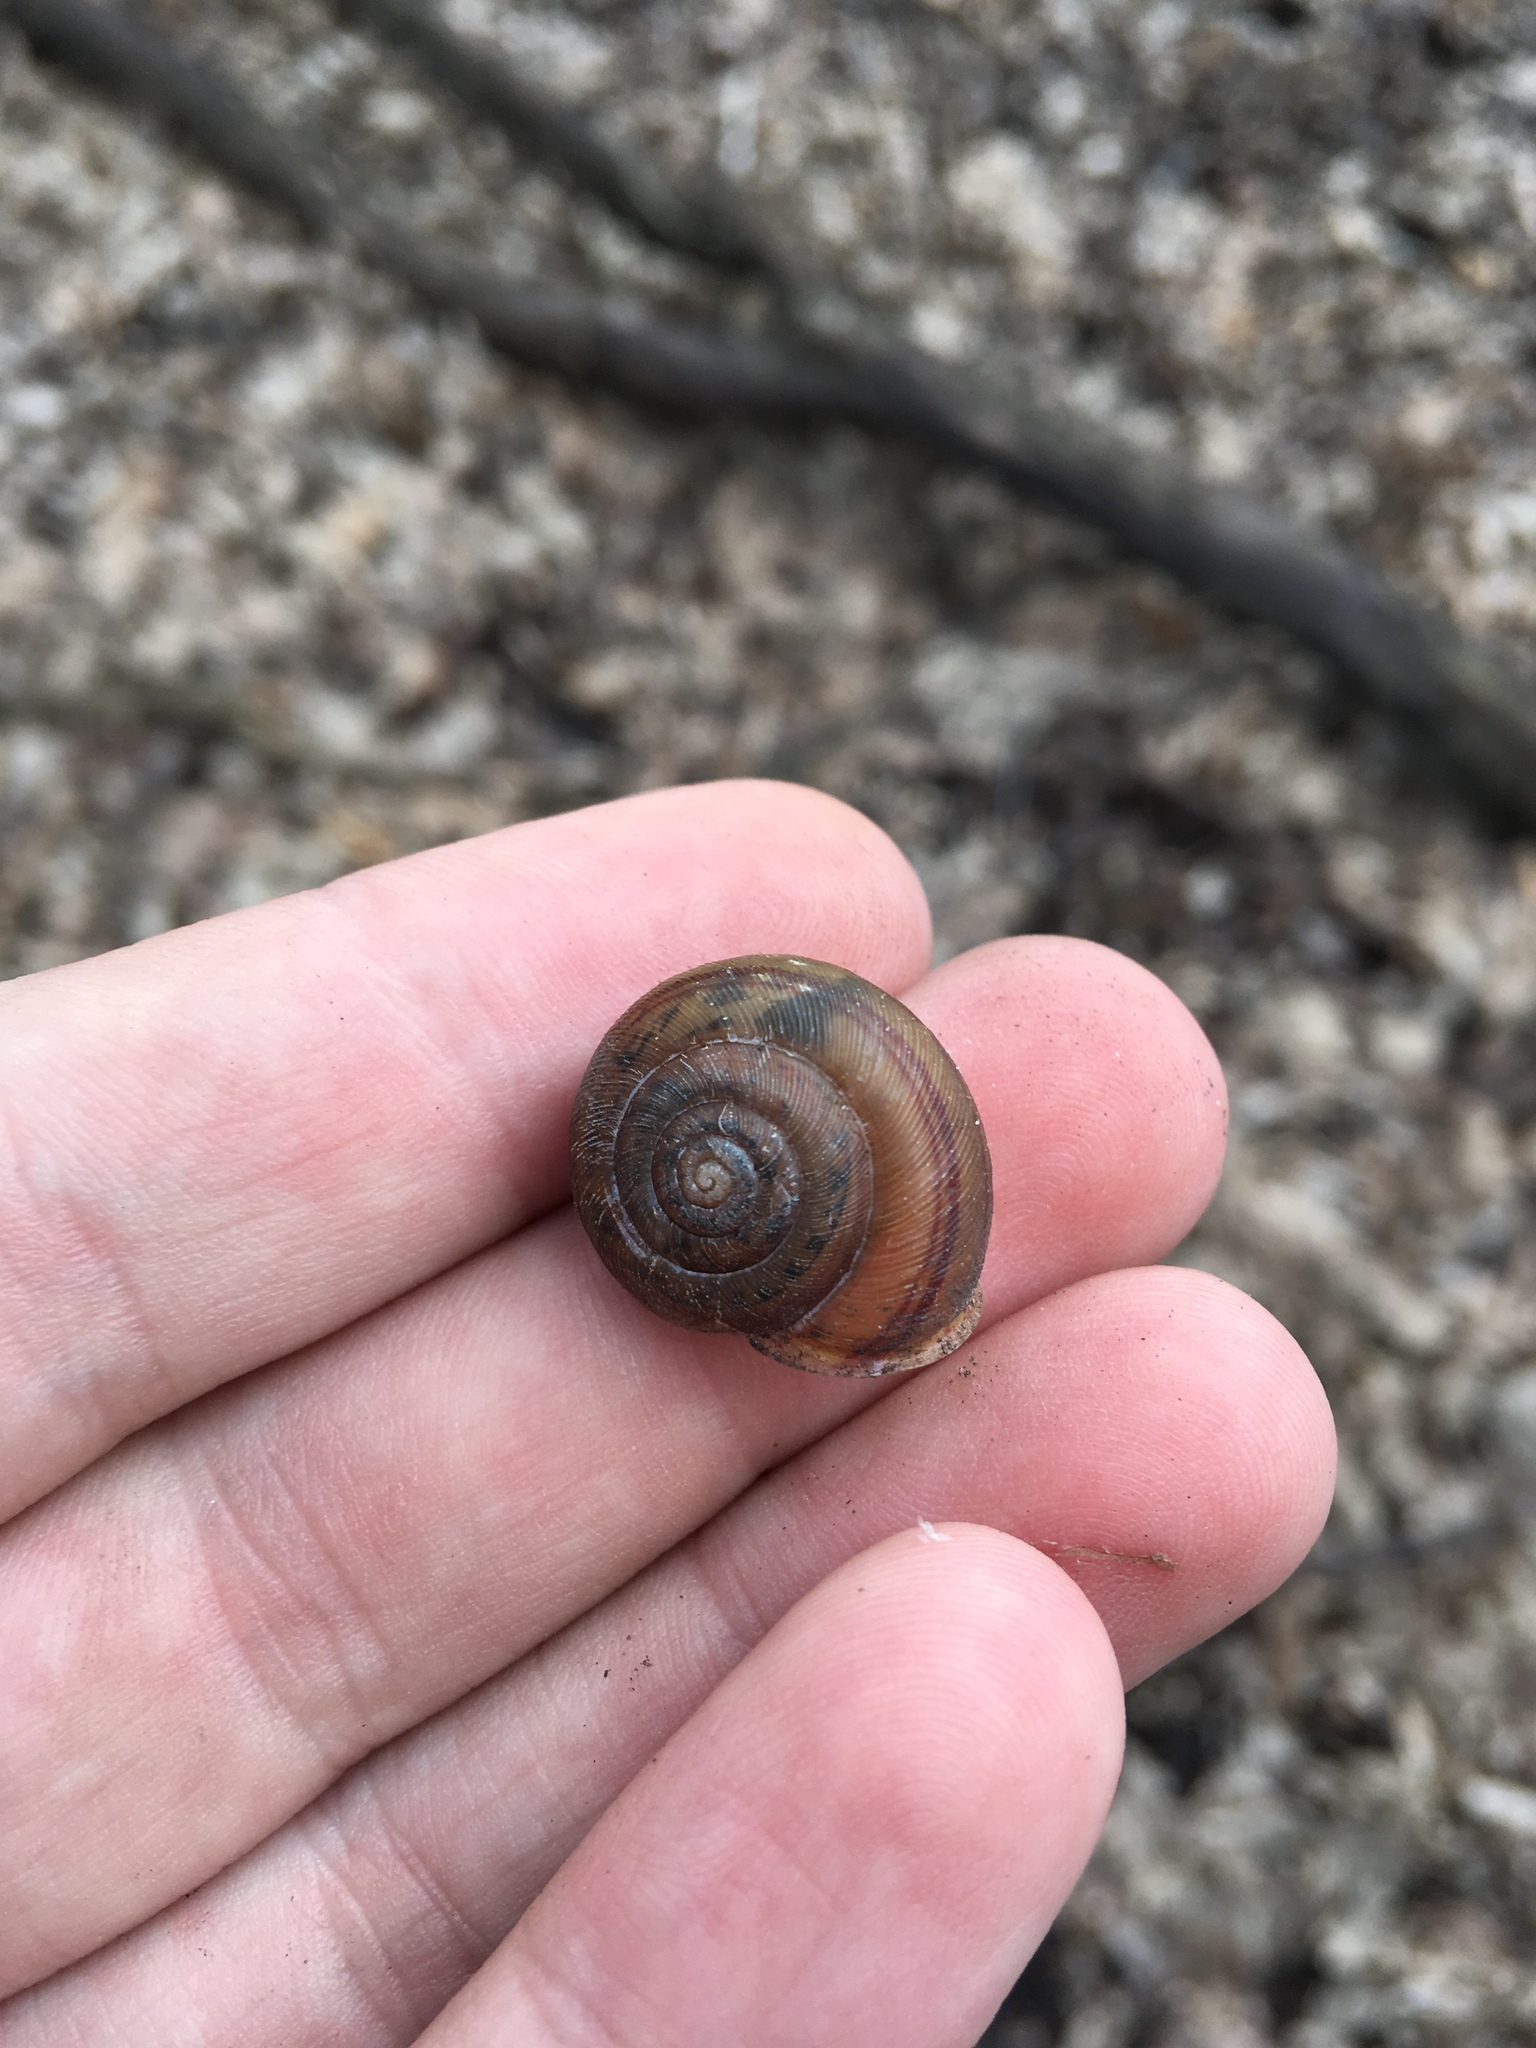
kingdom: Animalia
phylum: Mollusca
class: Gastropoda
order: Stylommatophora
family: Polygyridae
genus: Webbhelix
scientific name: Webbhelix multilineata
